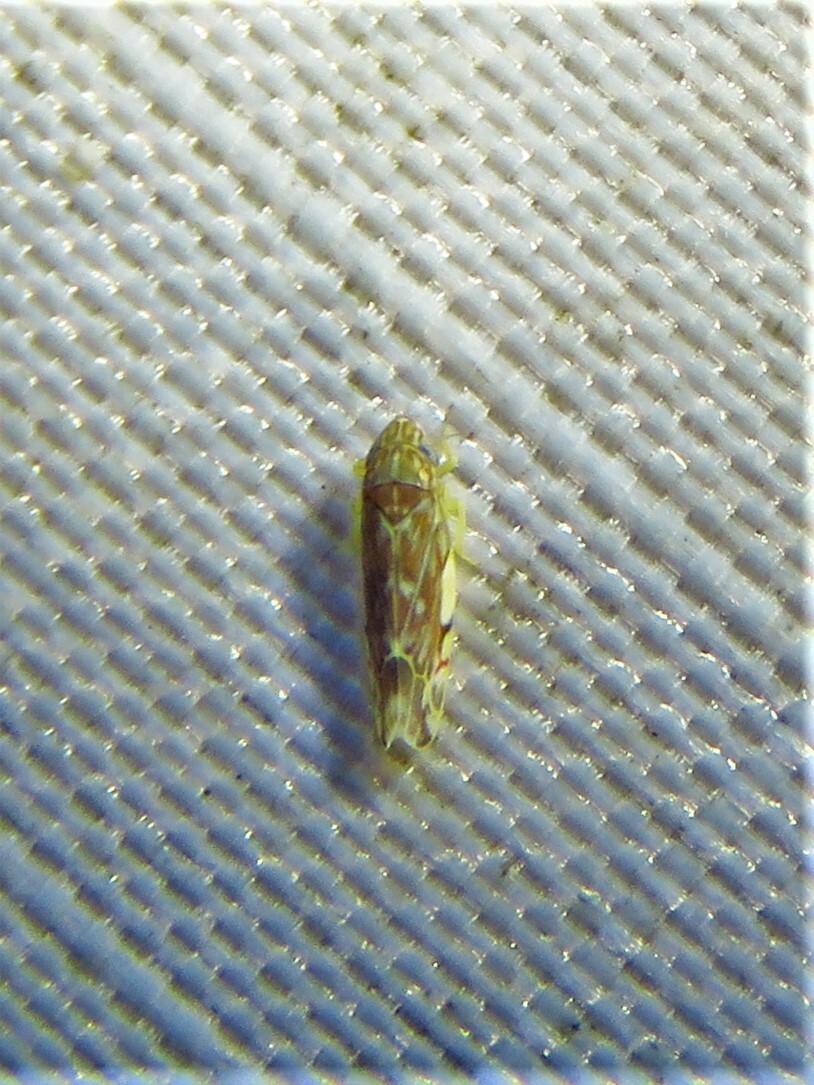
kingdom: Animalia
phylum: Arthropoda
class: Insecta
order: Hemiptera
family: Cicadellidae
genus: Erasmoneura
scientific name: Erasmoneura vulnerata
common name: The wounded leafhopper
